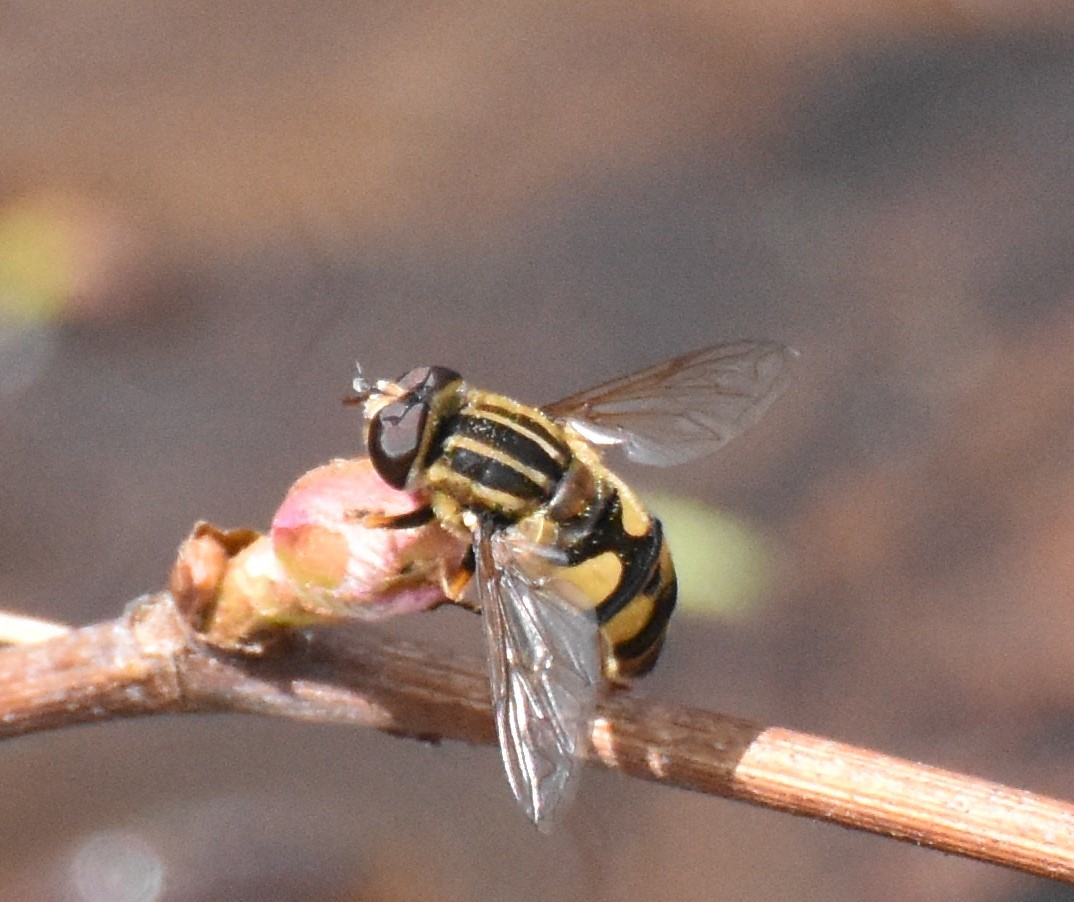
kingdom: Animalia
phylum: Arthropoda
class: Insecta
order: Diptera
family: Syrphidae
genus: Helophilus
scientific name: Helophilus fasciatus
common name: Narrow-headed marsh fly
